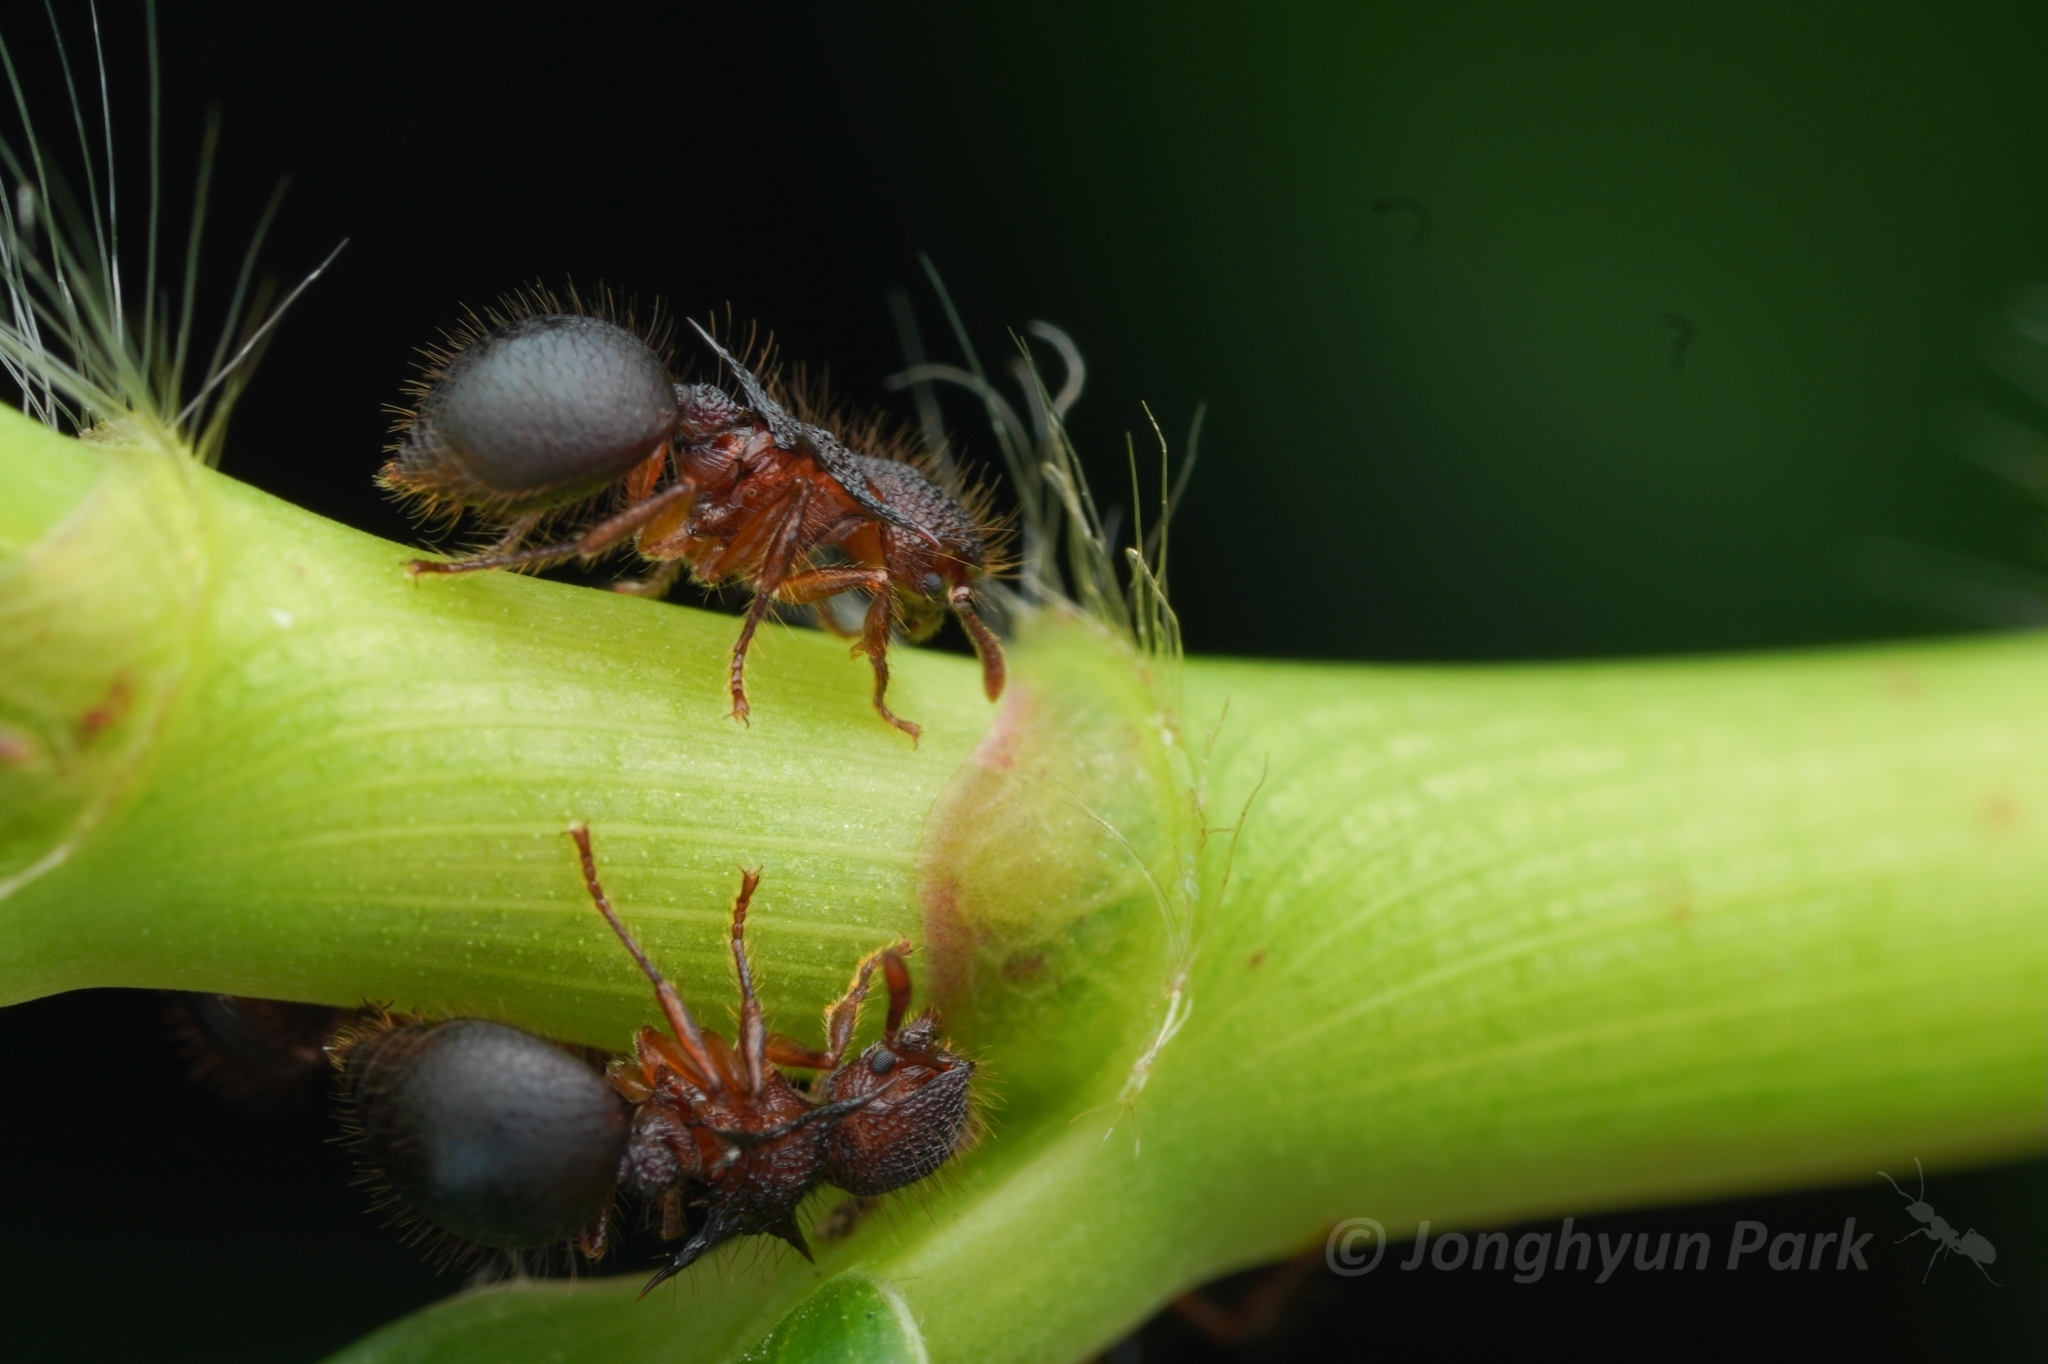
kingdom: Animalia
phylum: Arthropoda
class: Insecta
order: Hymenoptera
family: Formicidae
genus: Meranoplus
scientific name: Meranoplus mucronatus
